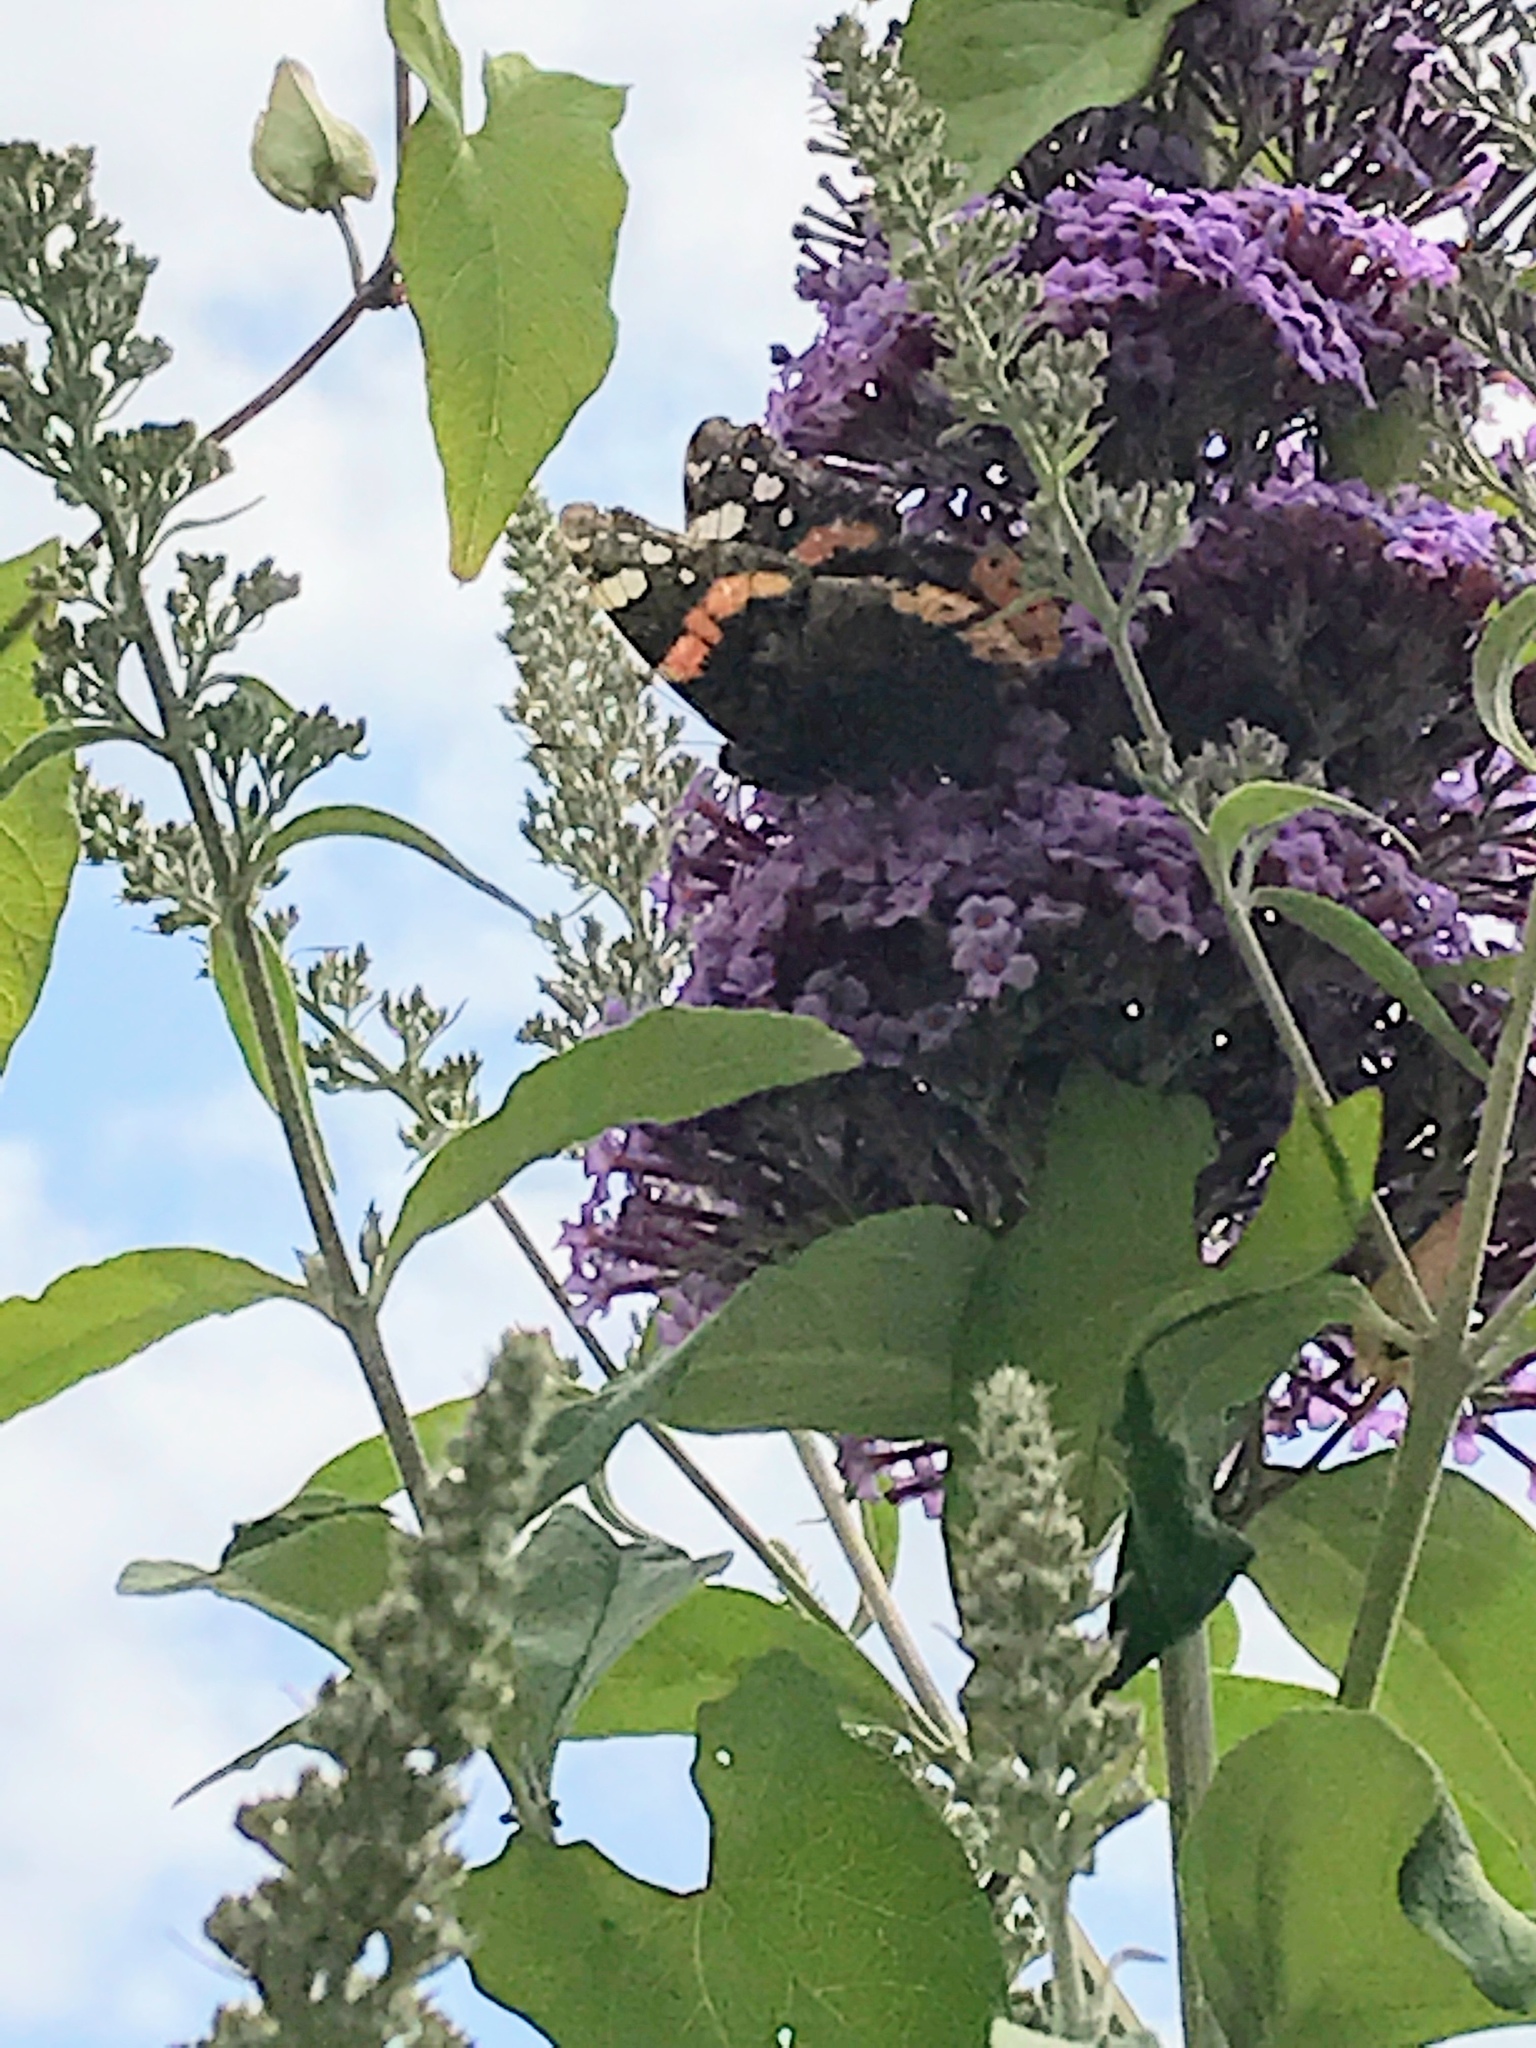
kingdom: Animalia
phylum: Arthropoda
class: Insecta
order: Lepidoptera
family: Nymphalidae
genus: Vanessa
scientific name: Vanessa atalanta
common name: Red admiral
